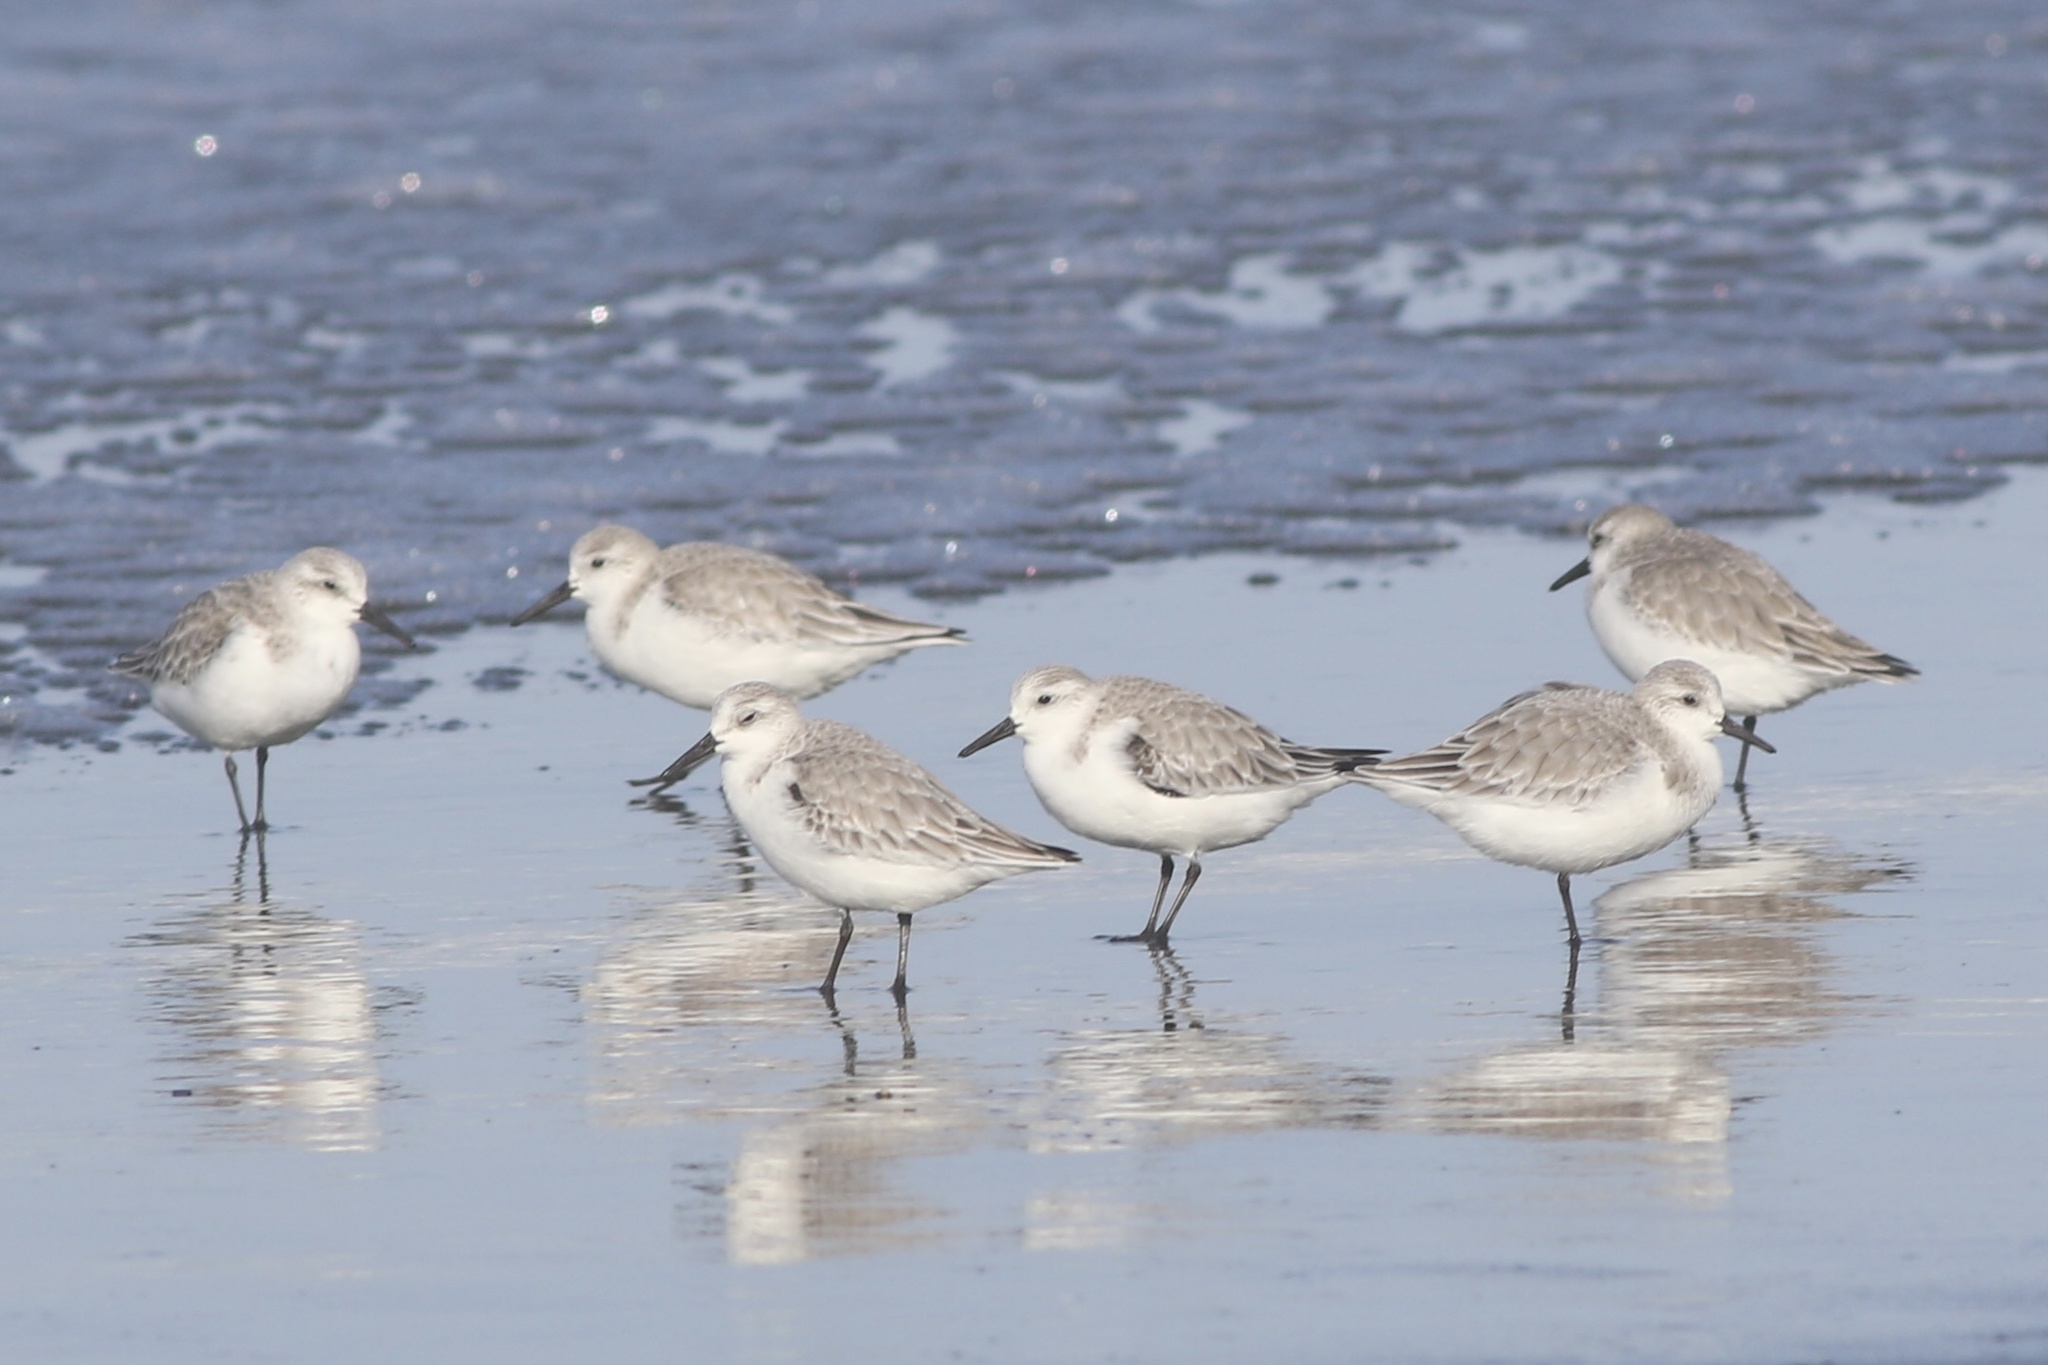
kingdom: Animalia
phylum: Chordata
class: Aves
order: Charadriiformes
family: Scolopacidae
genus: Calidris
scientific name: Calidris alba
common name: Sanderling
